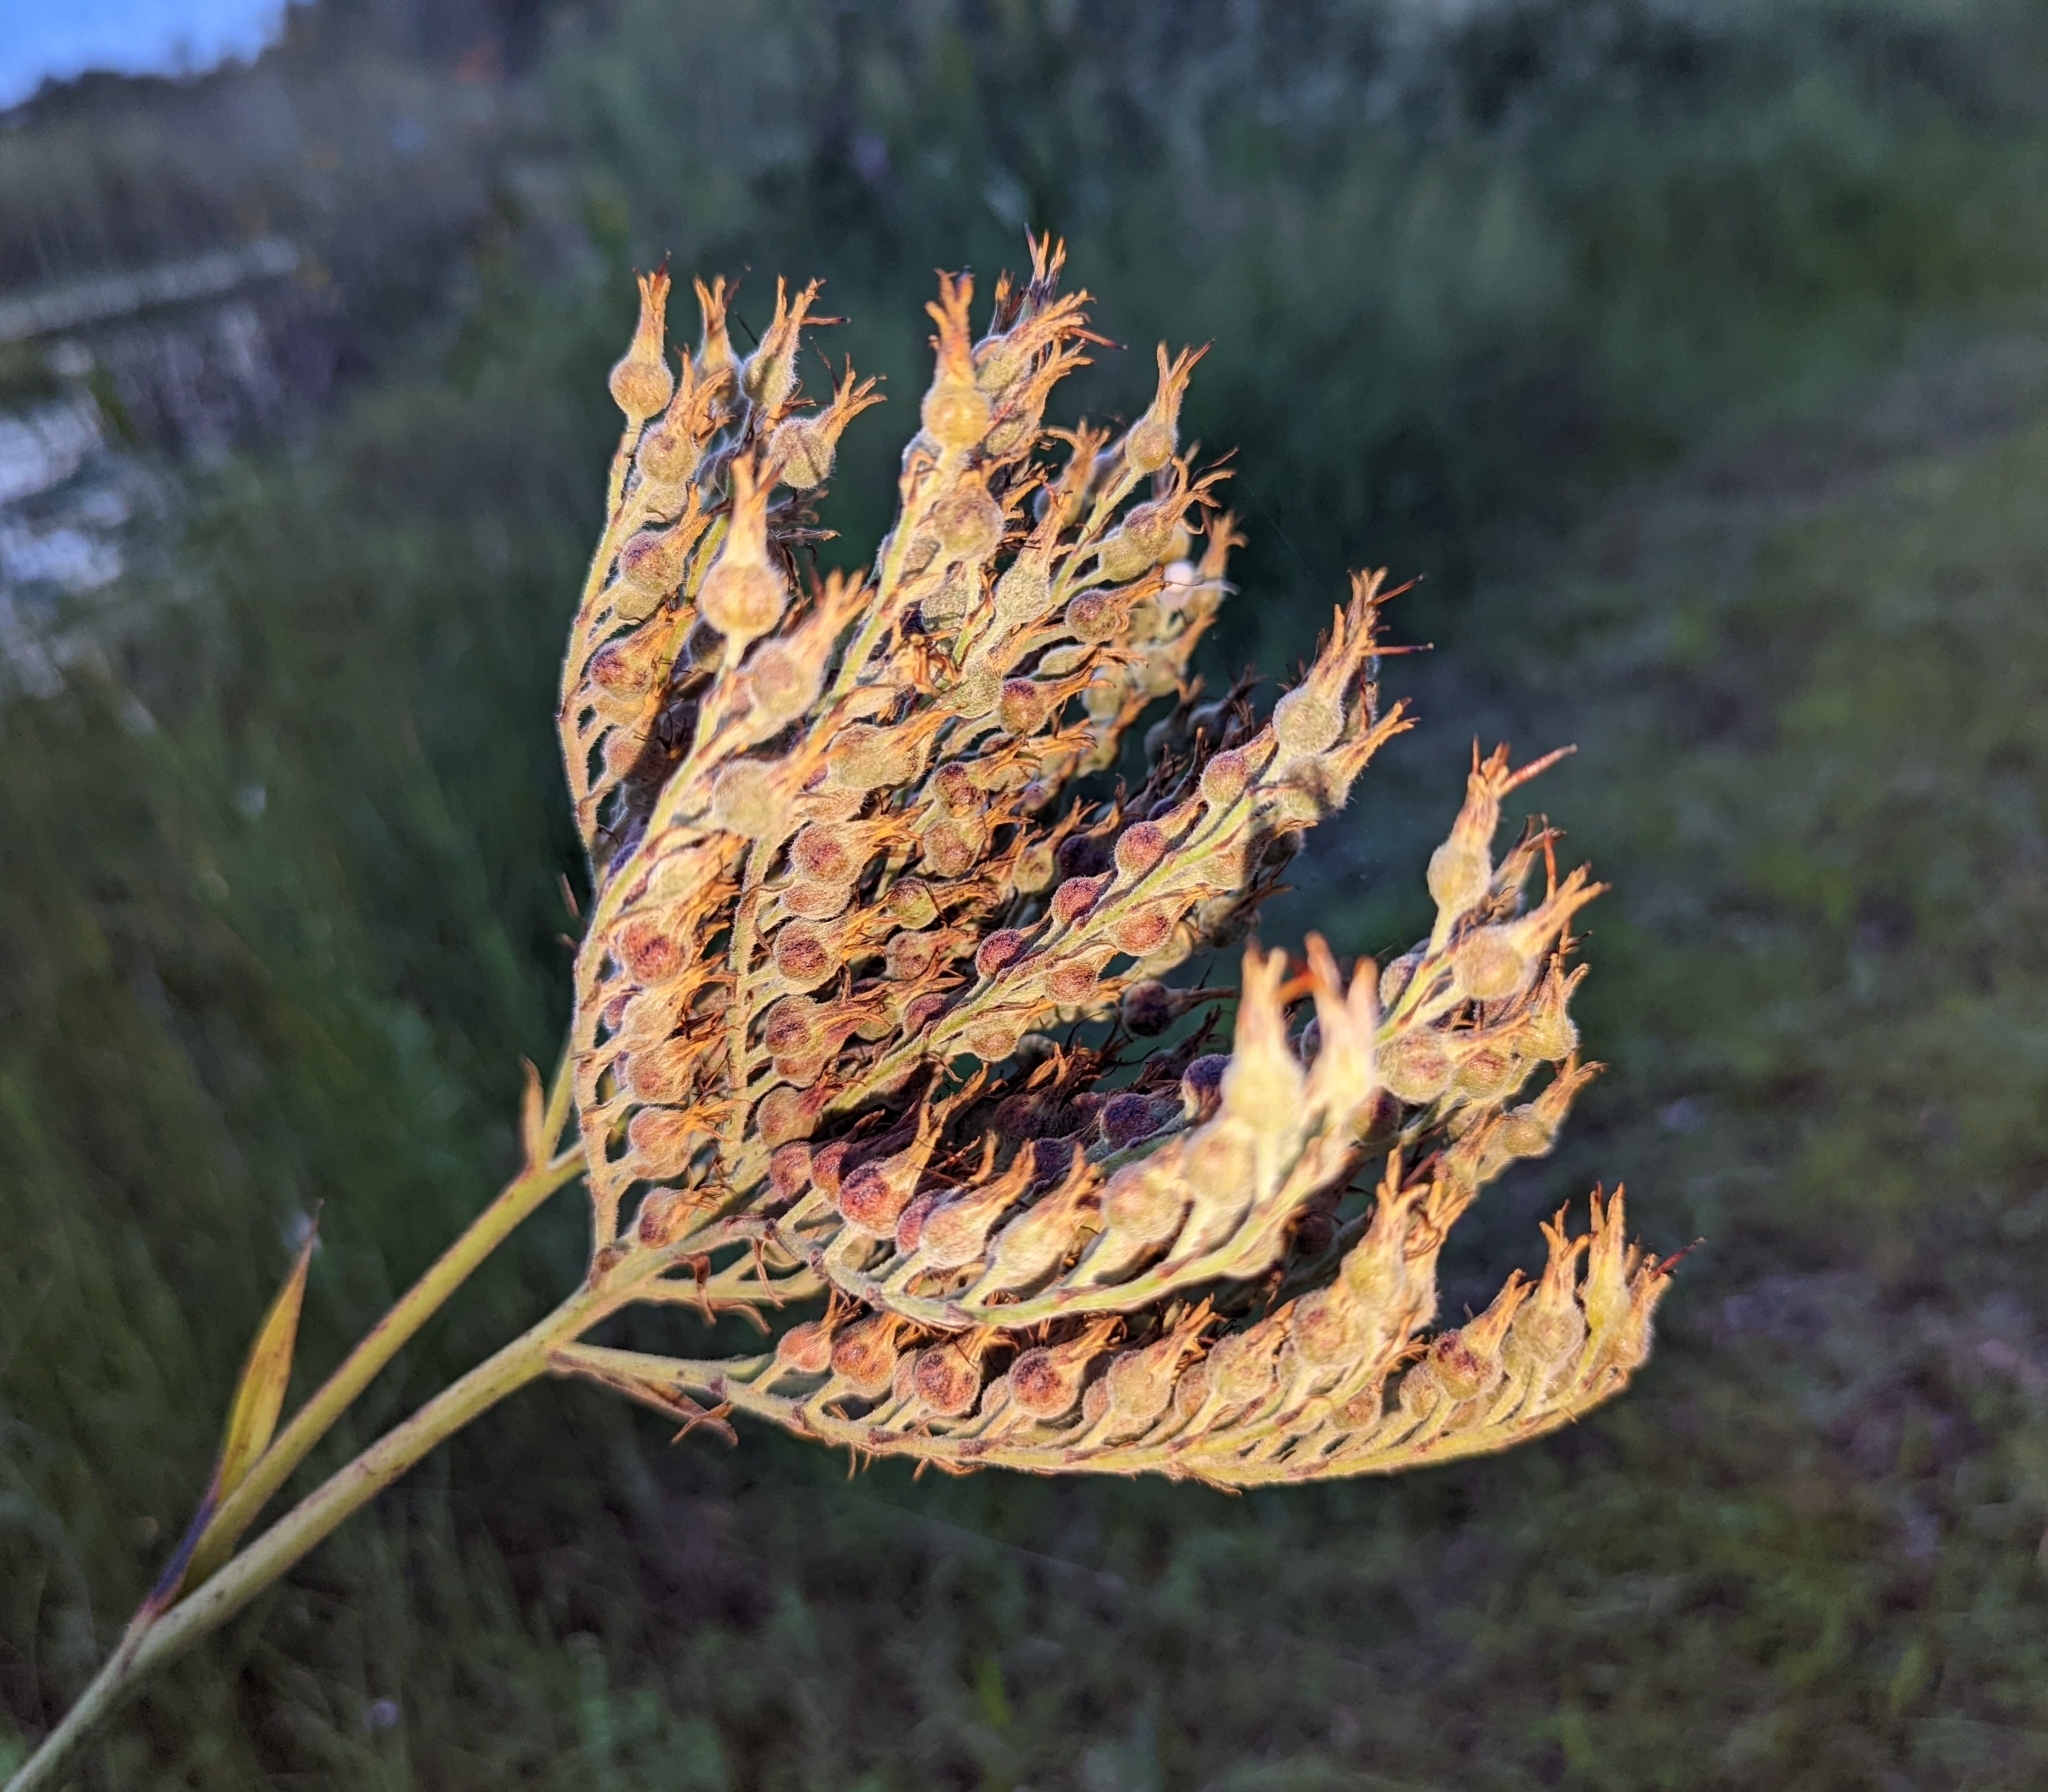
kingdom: Plantae
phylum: Tracheophyta
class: Liliopsida
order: Commelinales
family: Haemodoraceae
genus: Lachnanthes
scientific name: Lachnanthes caroliana
